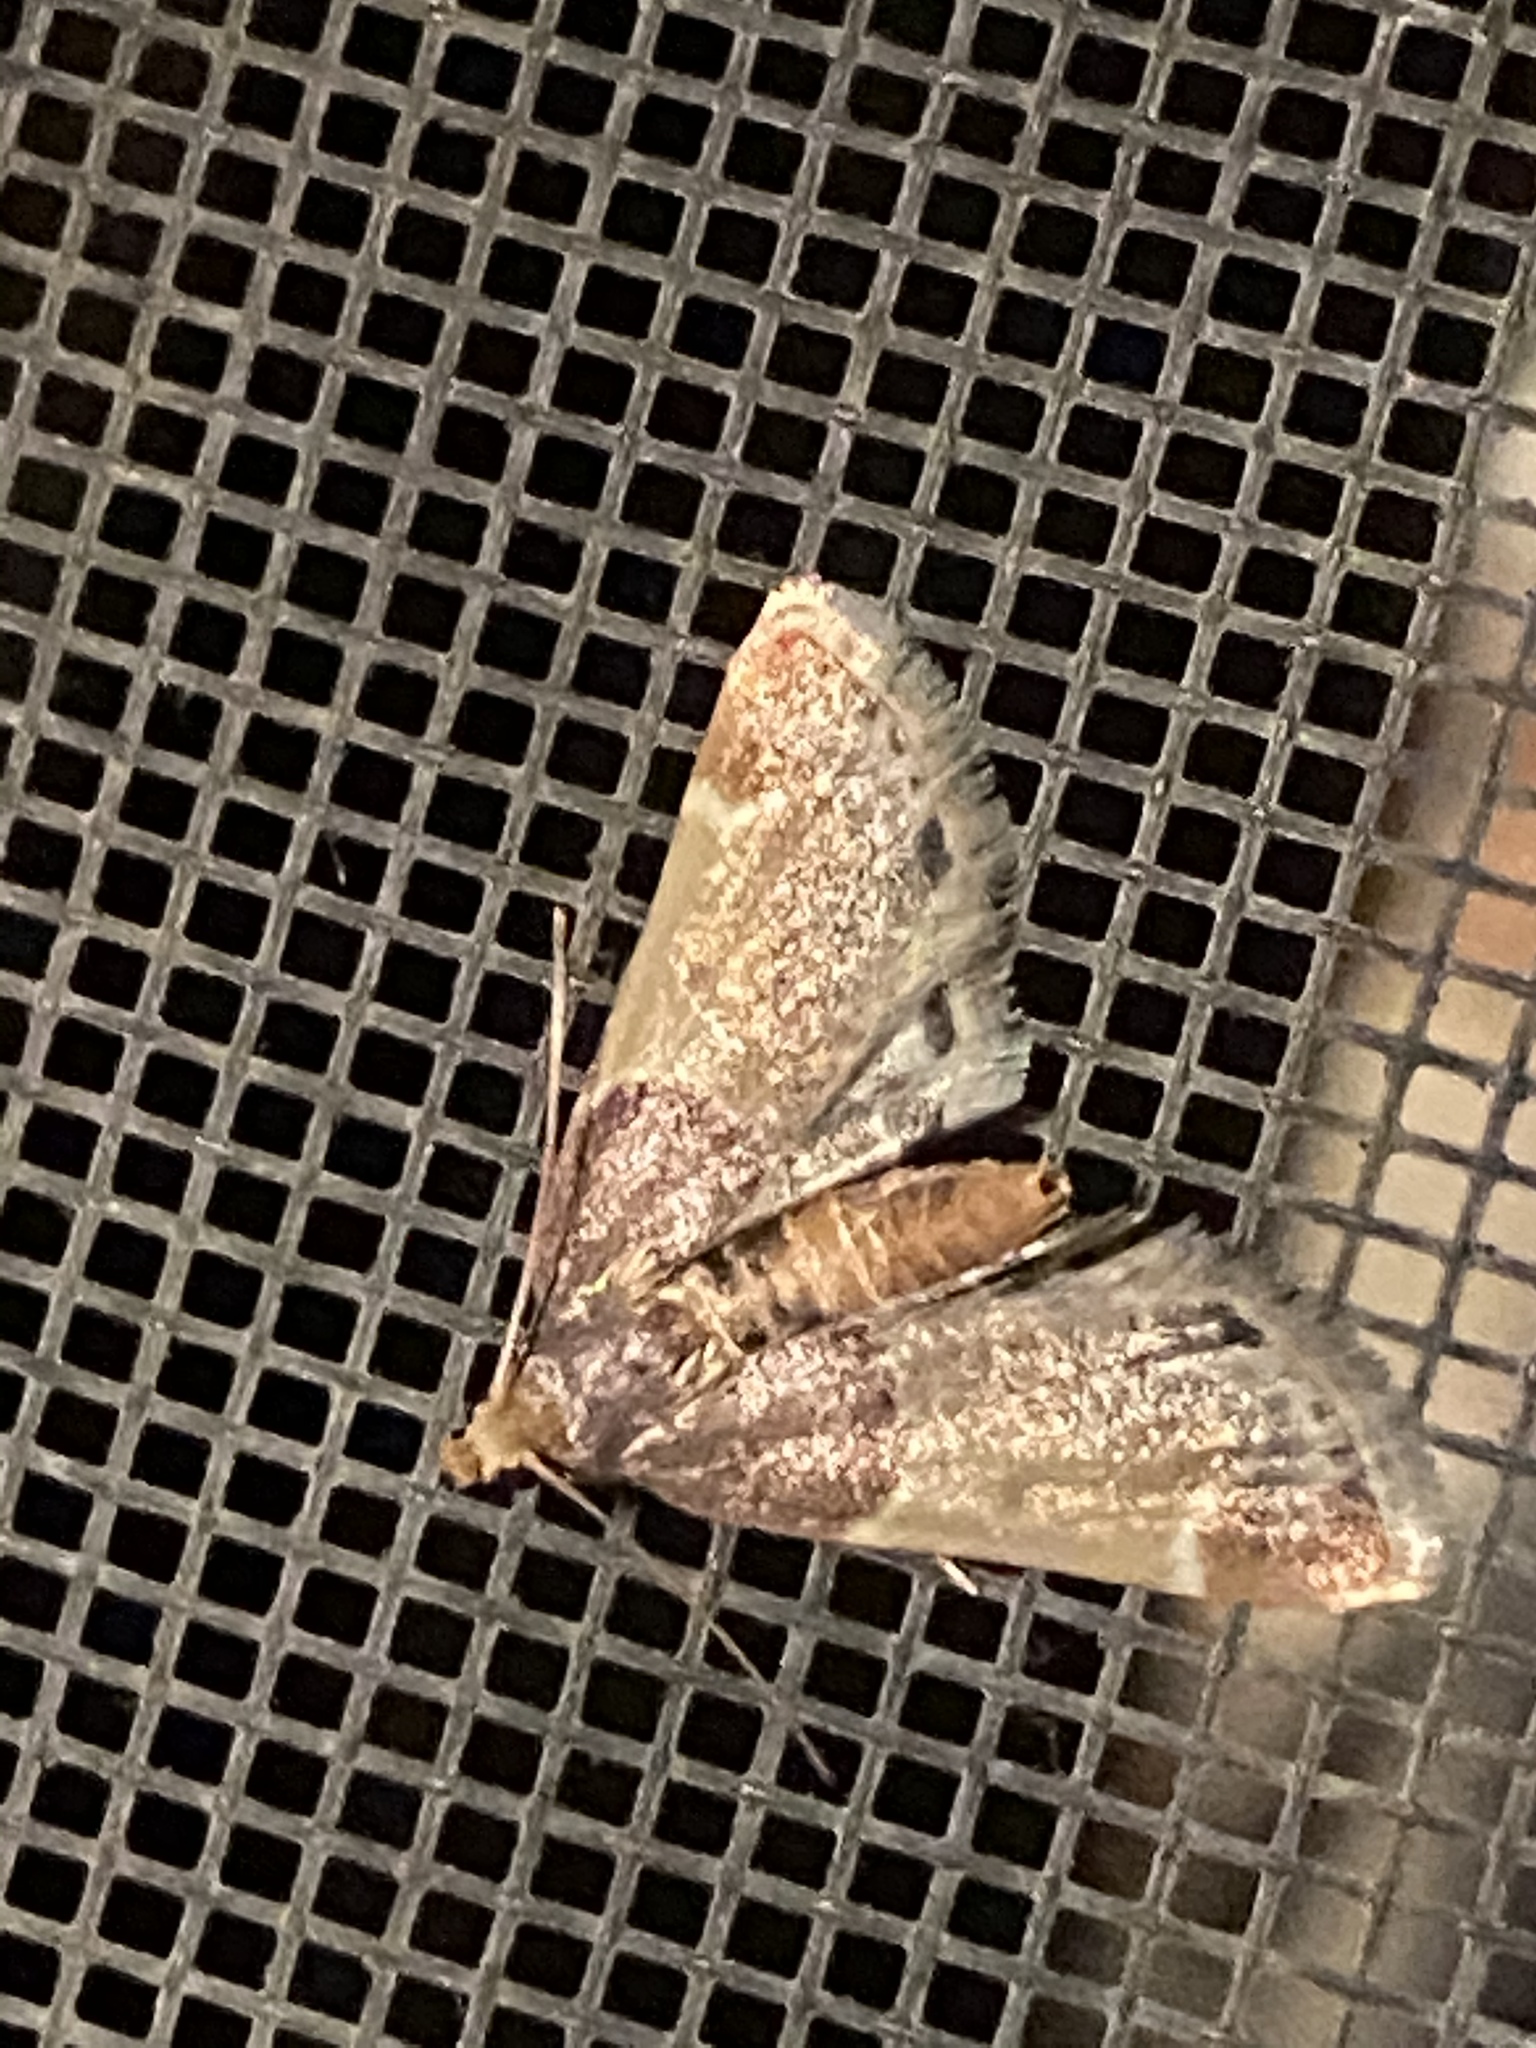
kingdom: Animalia
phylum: Arthropoda
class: Insecta
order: Lepidoptera
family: Pyralidae
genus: Pyralis
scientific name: Pyralis farinalis
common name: Meal moth
